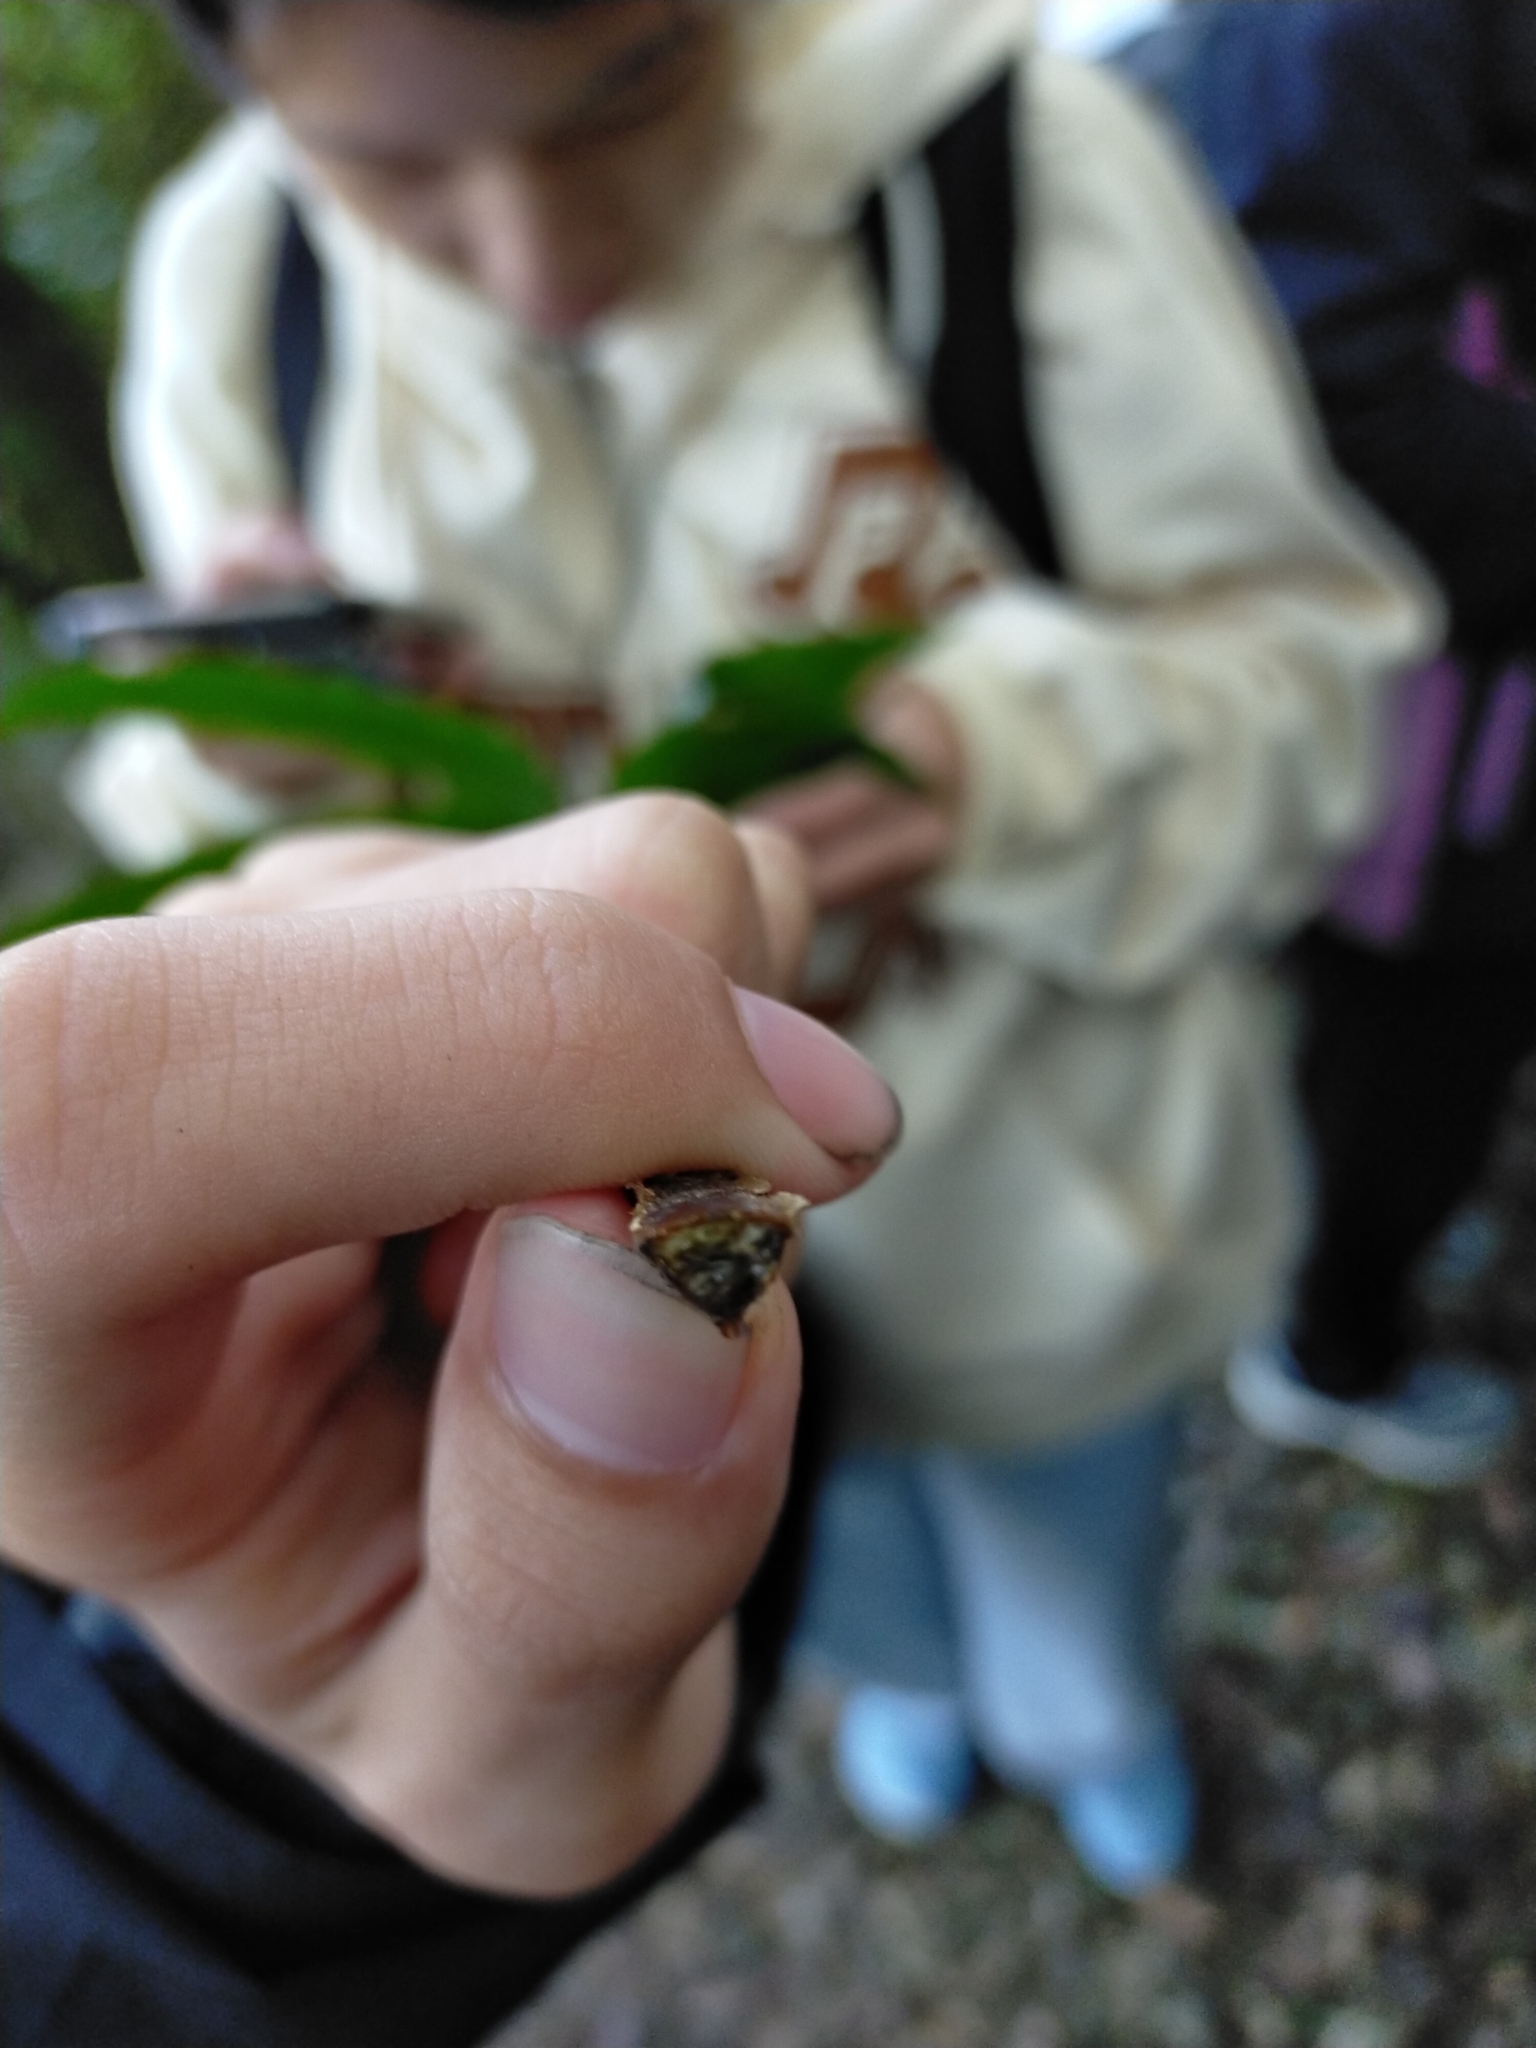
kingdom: Plantae
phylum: Tracheophyta
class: Polypodiopsida
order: Cyatheales
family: Plagiogyriaceae
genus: Plagiogyria
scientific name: Plagiogyria euphlebia
